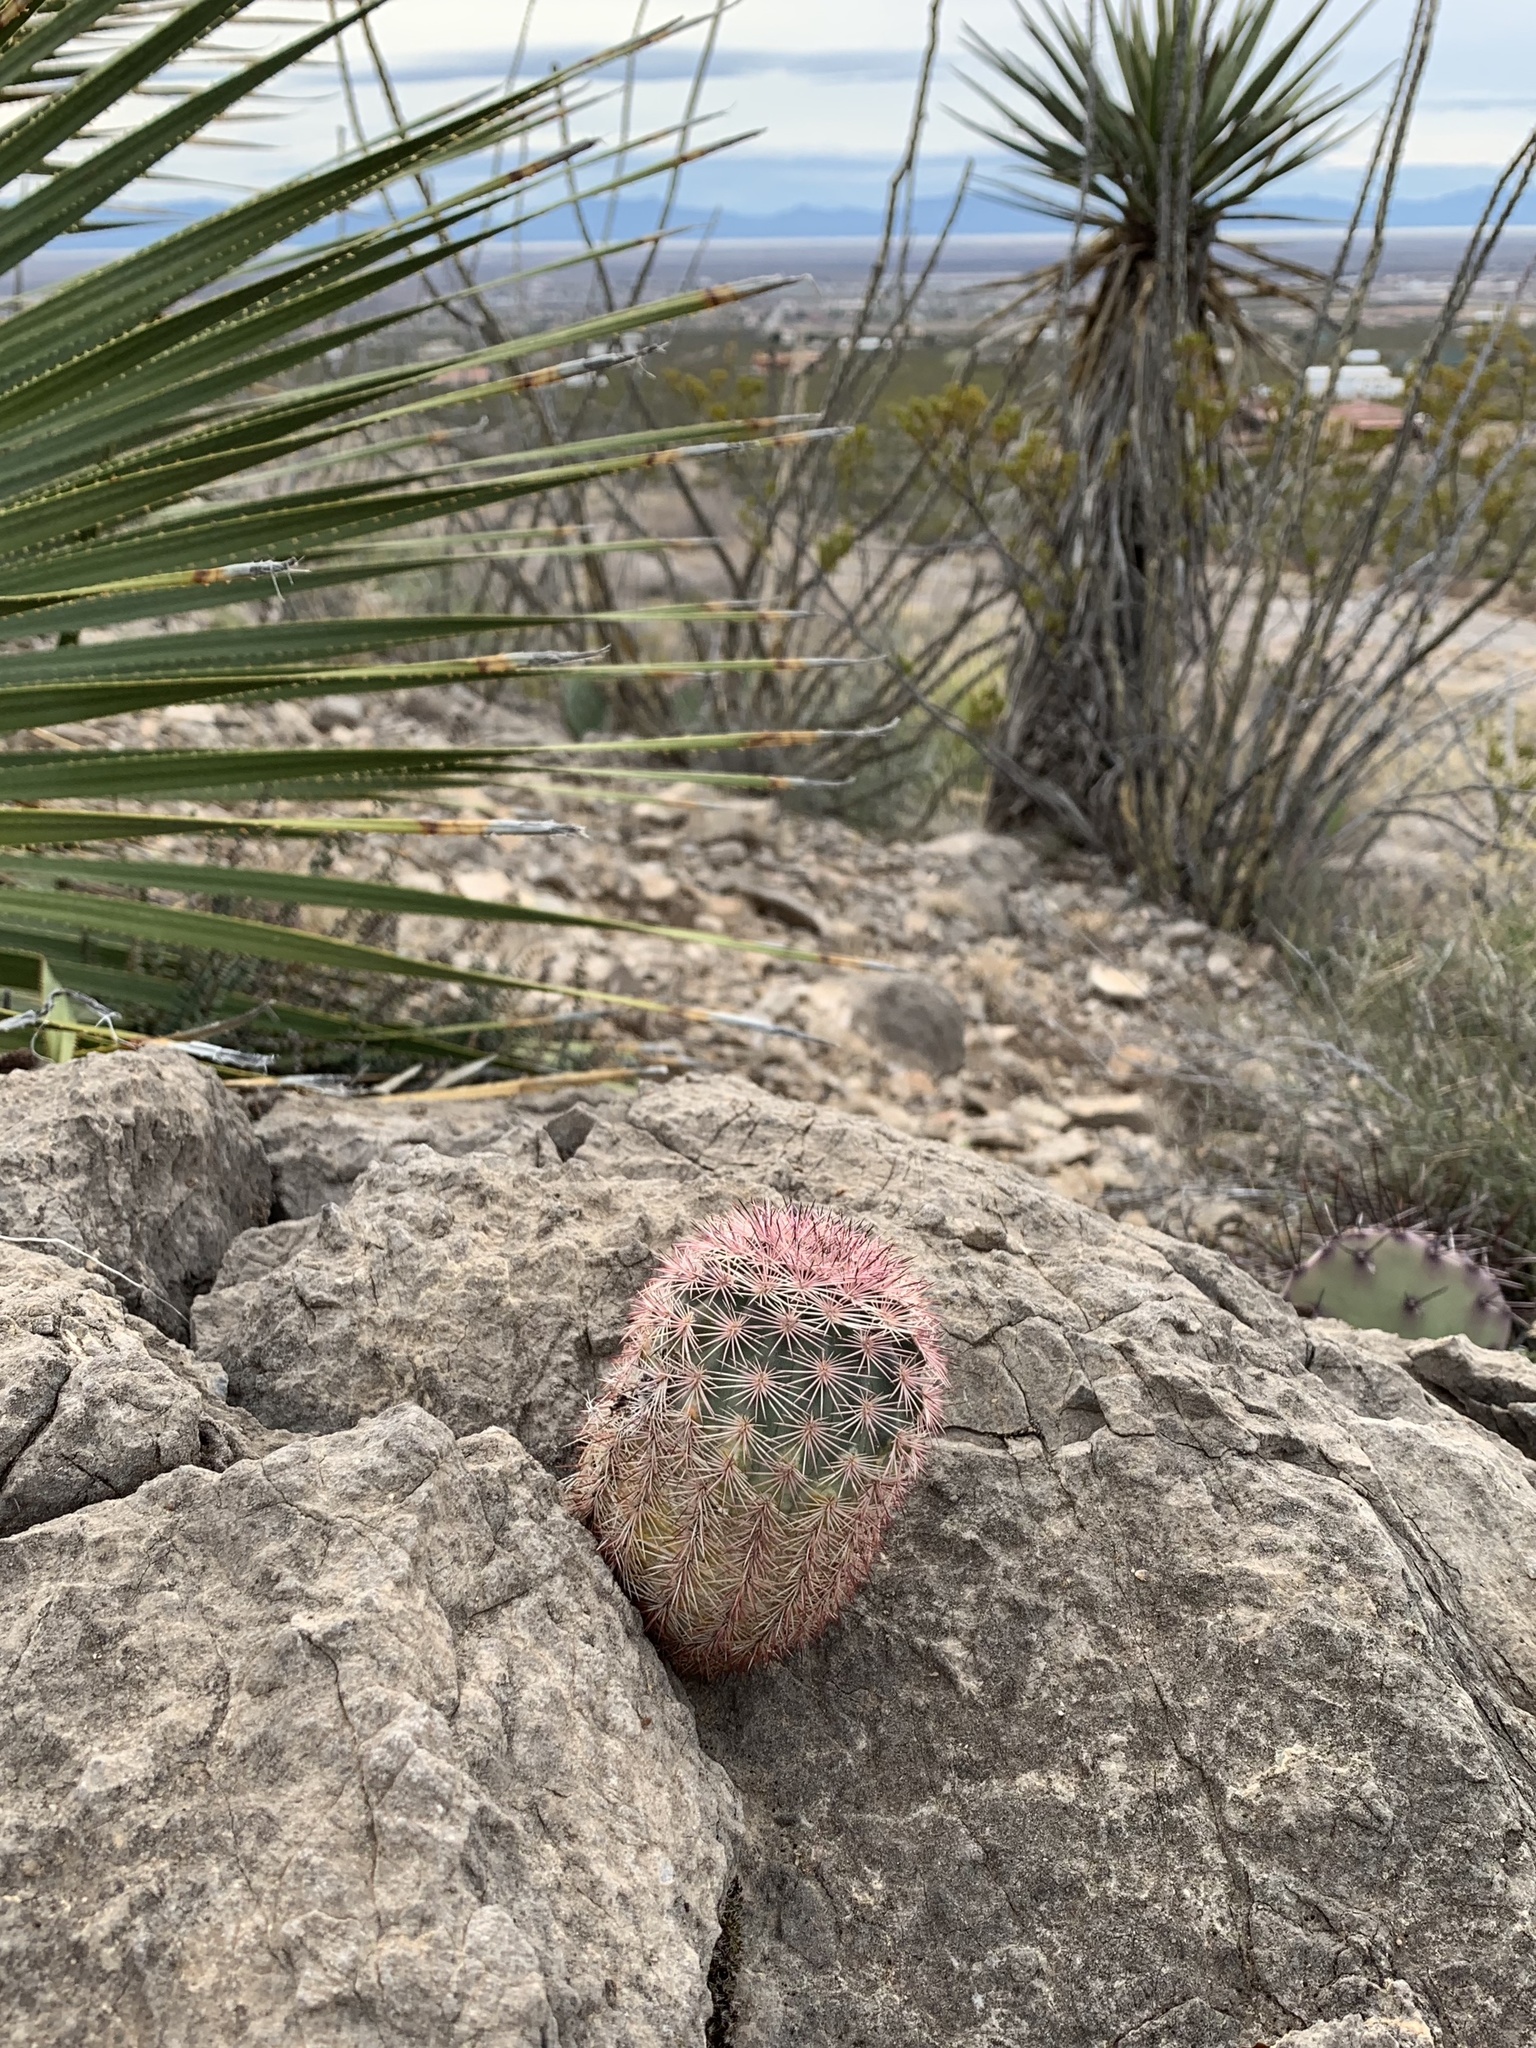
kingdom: Plantae
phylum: Tracheophyta
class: Magnoliopsida
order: Caryophyllales
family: Cactaceae
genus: Echinocereus
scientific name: Echinocereus dasyacanthus
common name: Spiny hedgehog cactus
